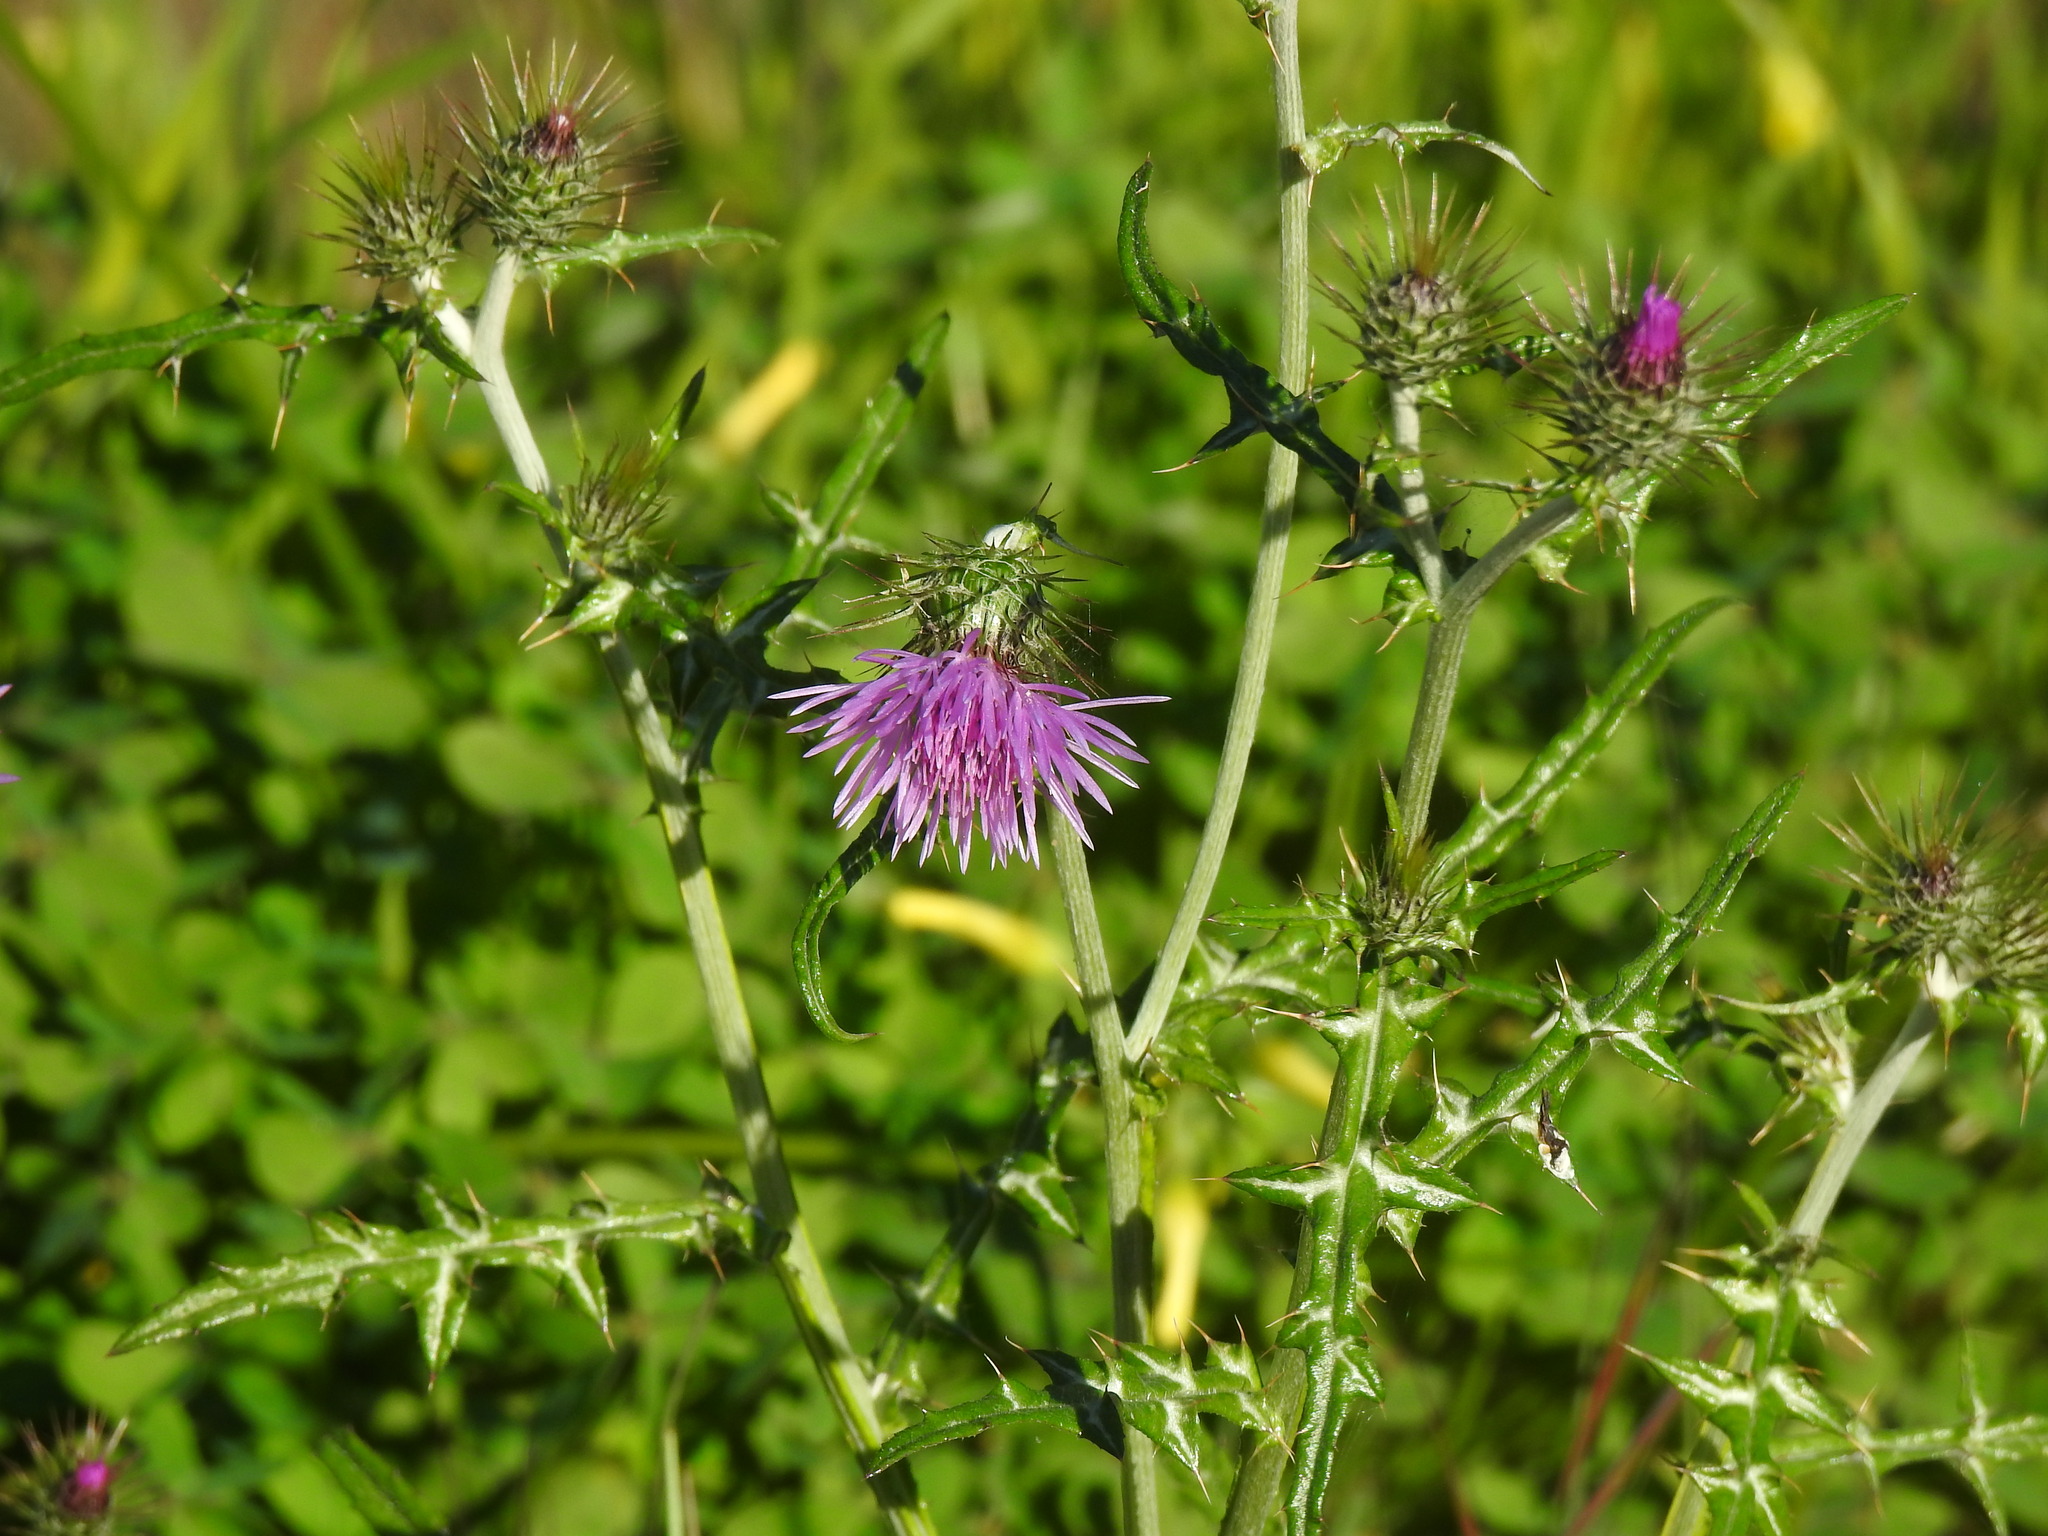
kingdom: Plantae
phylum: Tracheophyta
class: Magnoliopsida
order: Asterales
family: Asteraceae
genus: Galactites
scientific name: Galactites tomentosa
